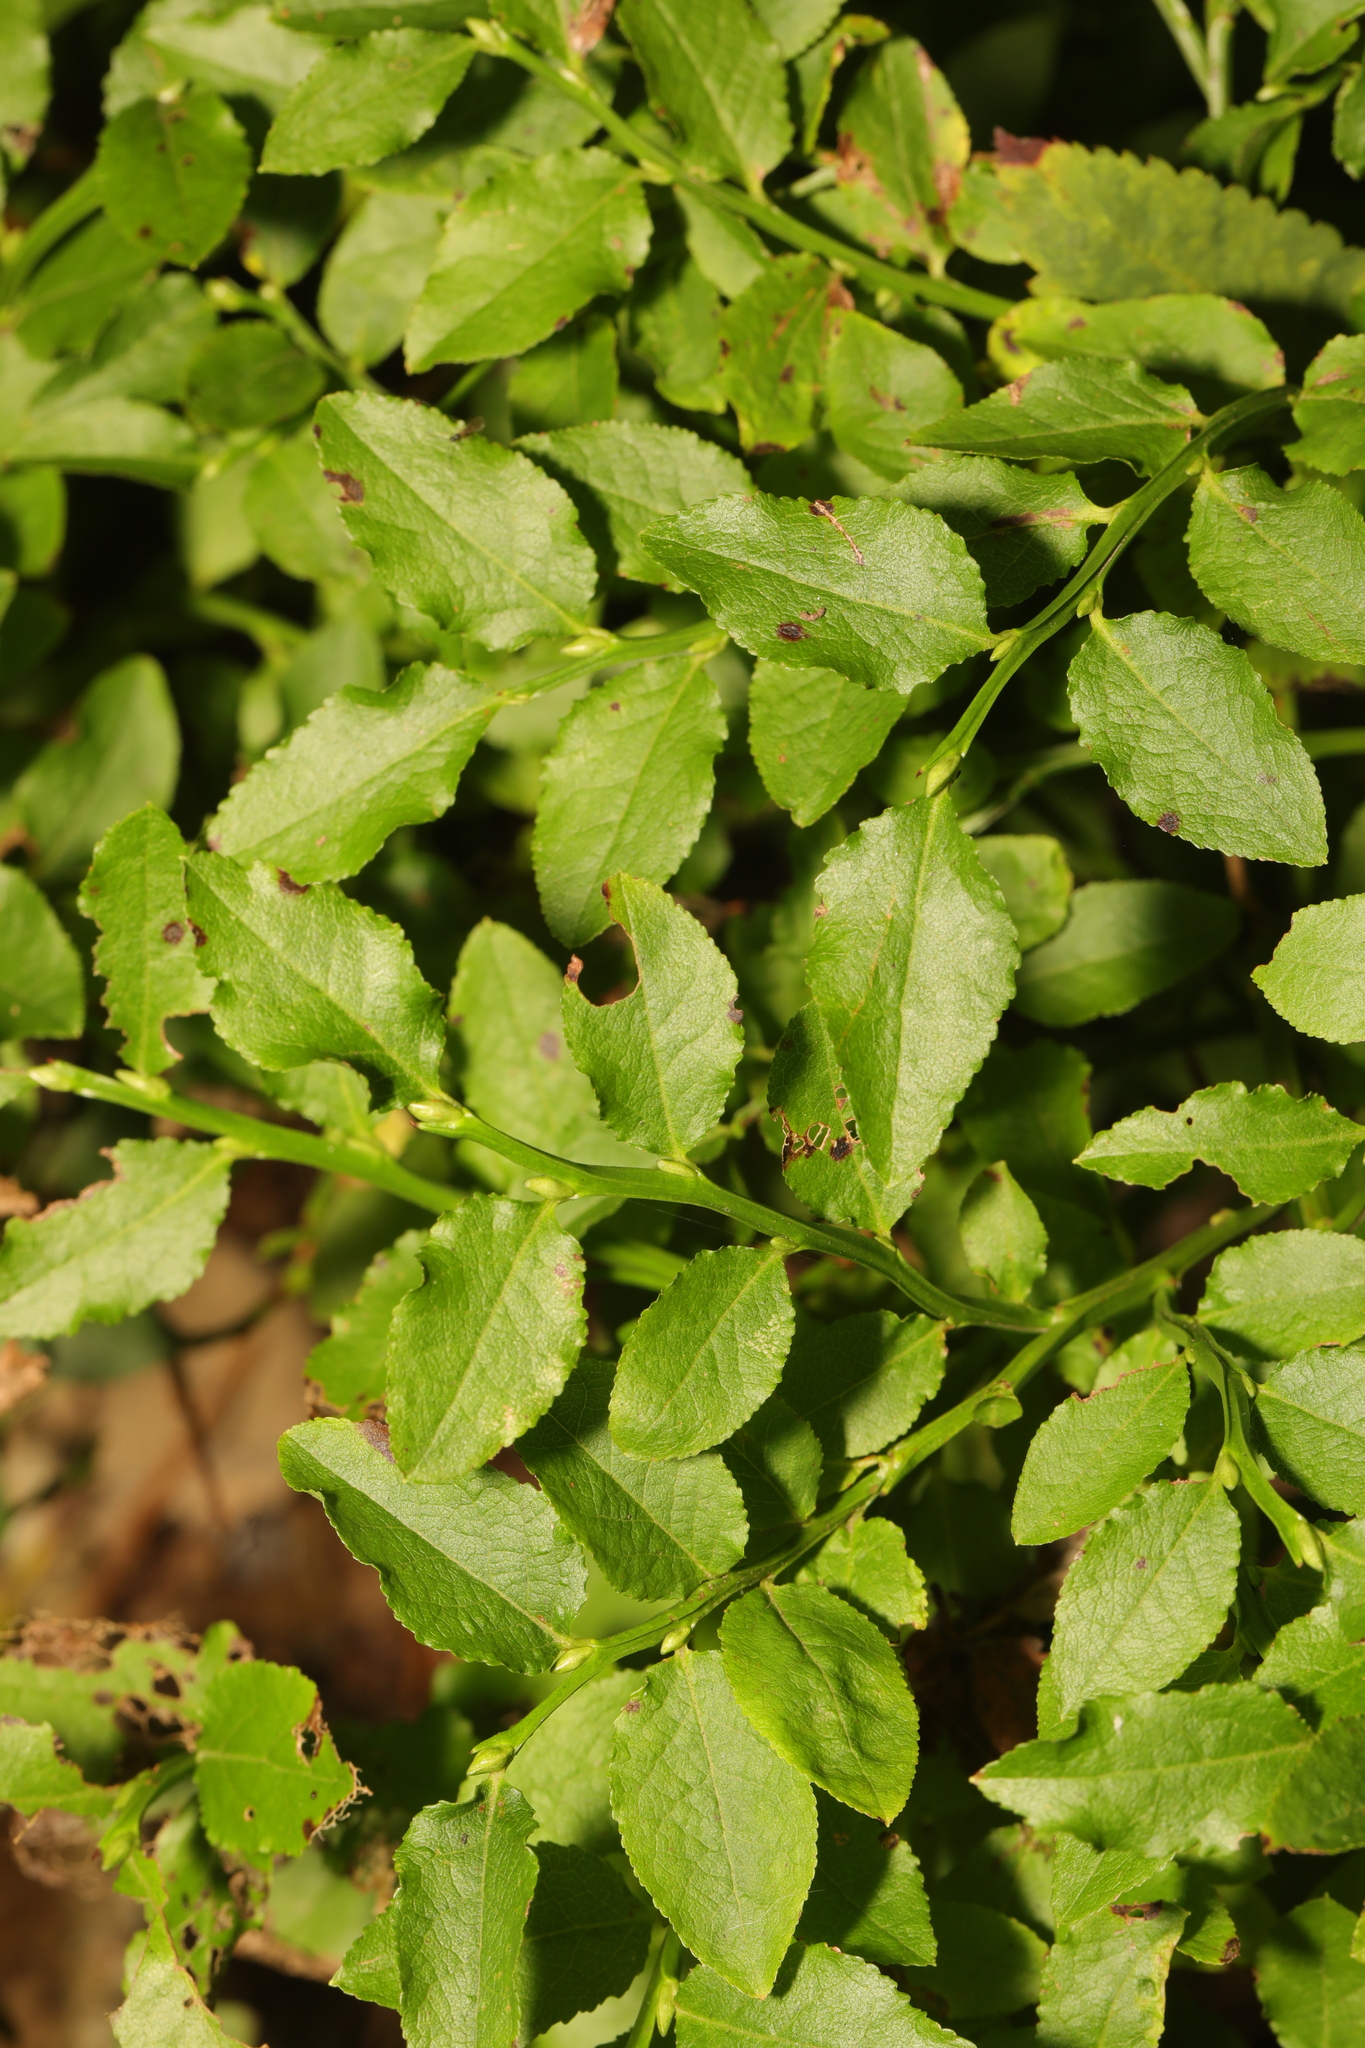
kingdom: Plantae
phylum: Tracheophyta
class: Magnoliopsida
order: Ericales
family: Ericaceae
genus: Vaccinium
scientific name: Vaccinium myrtillus
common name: Bilberry
